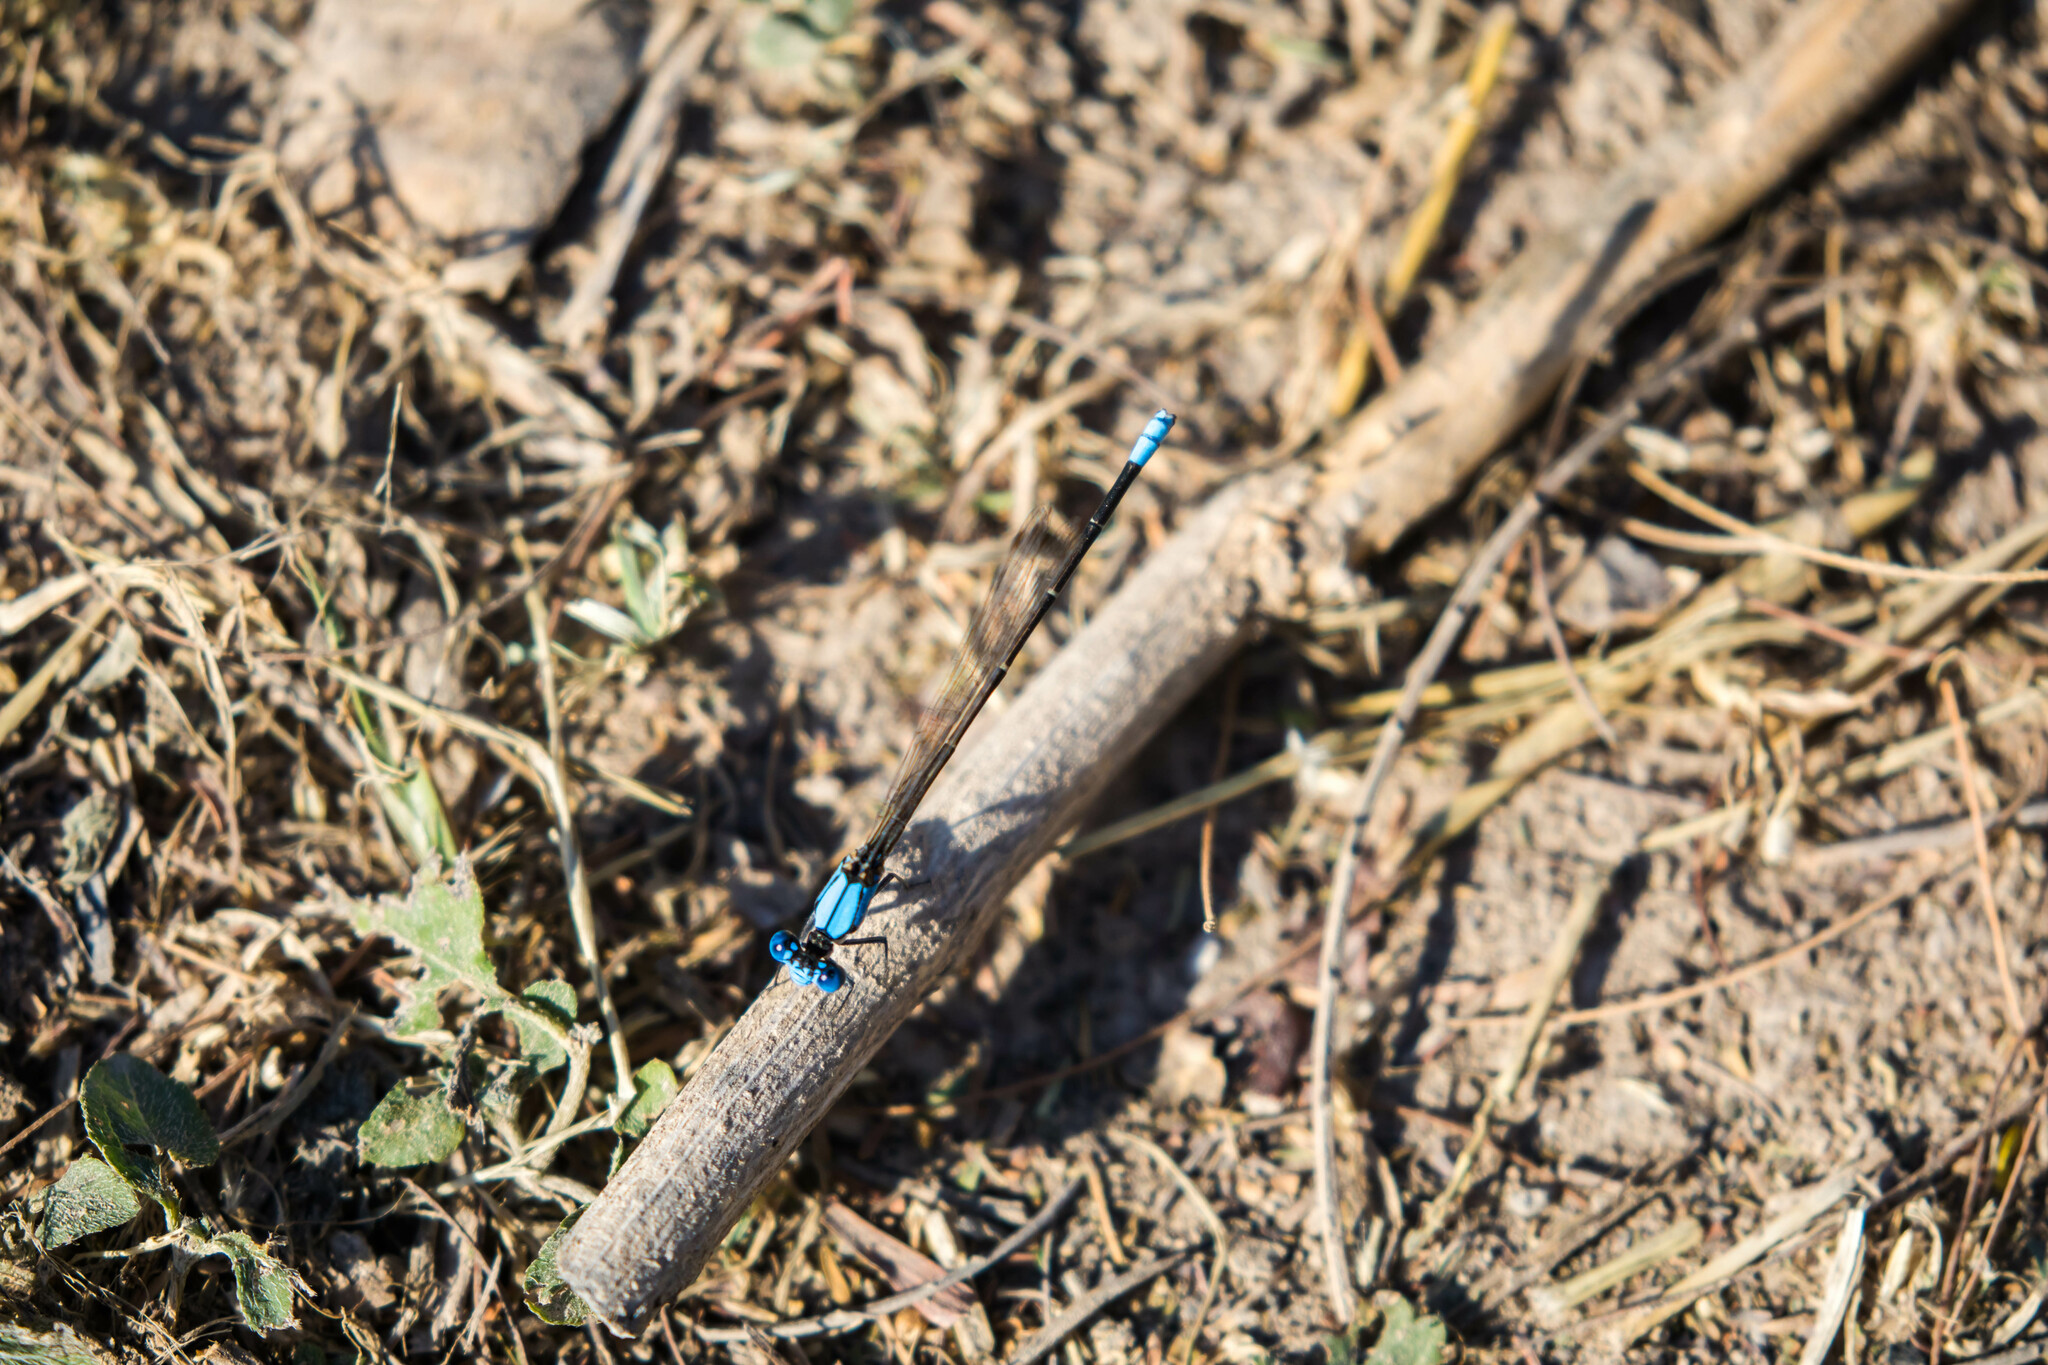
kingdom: Animalia
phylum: Arthropoda
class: Insecta
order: Odonata
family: Coenagrionidae
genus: Argia
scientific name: Argia apicalis
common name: Blue-fronted dancer
